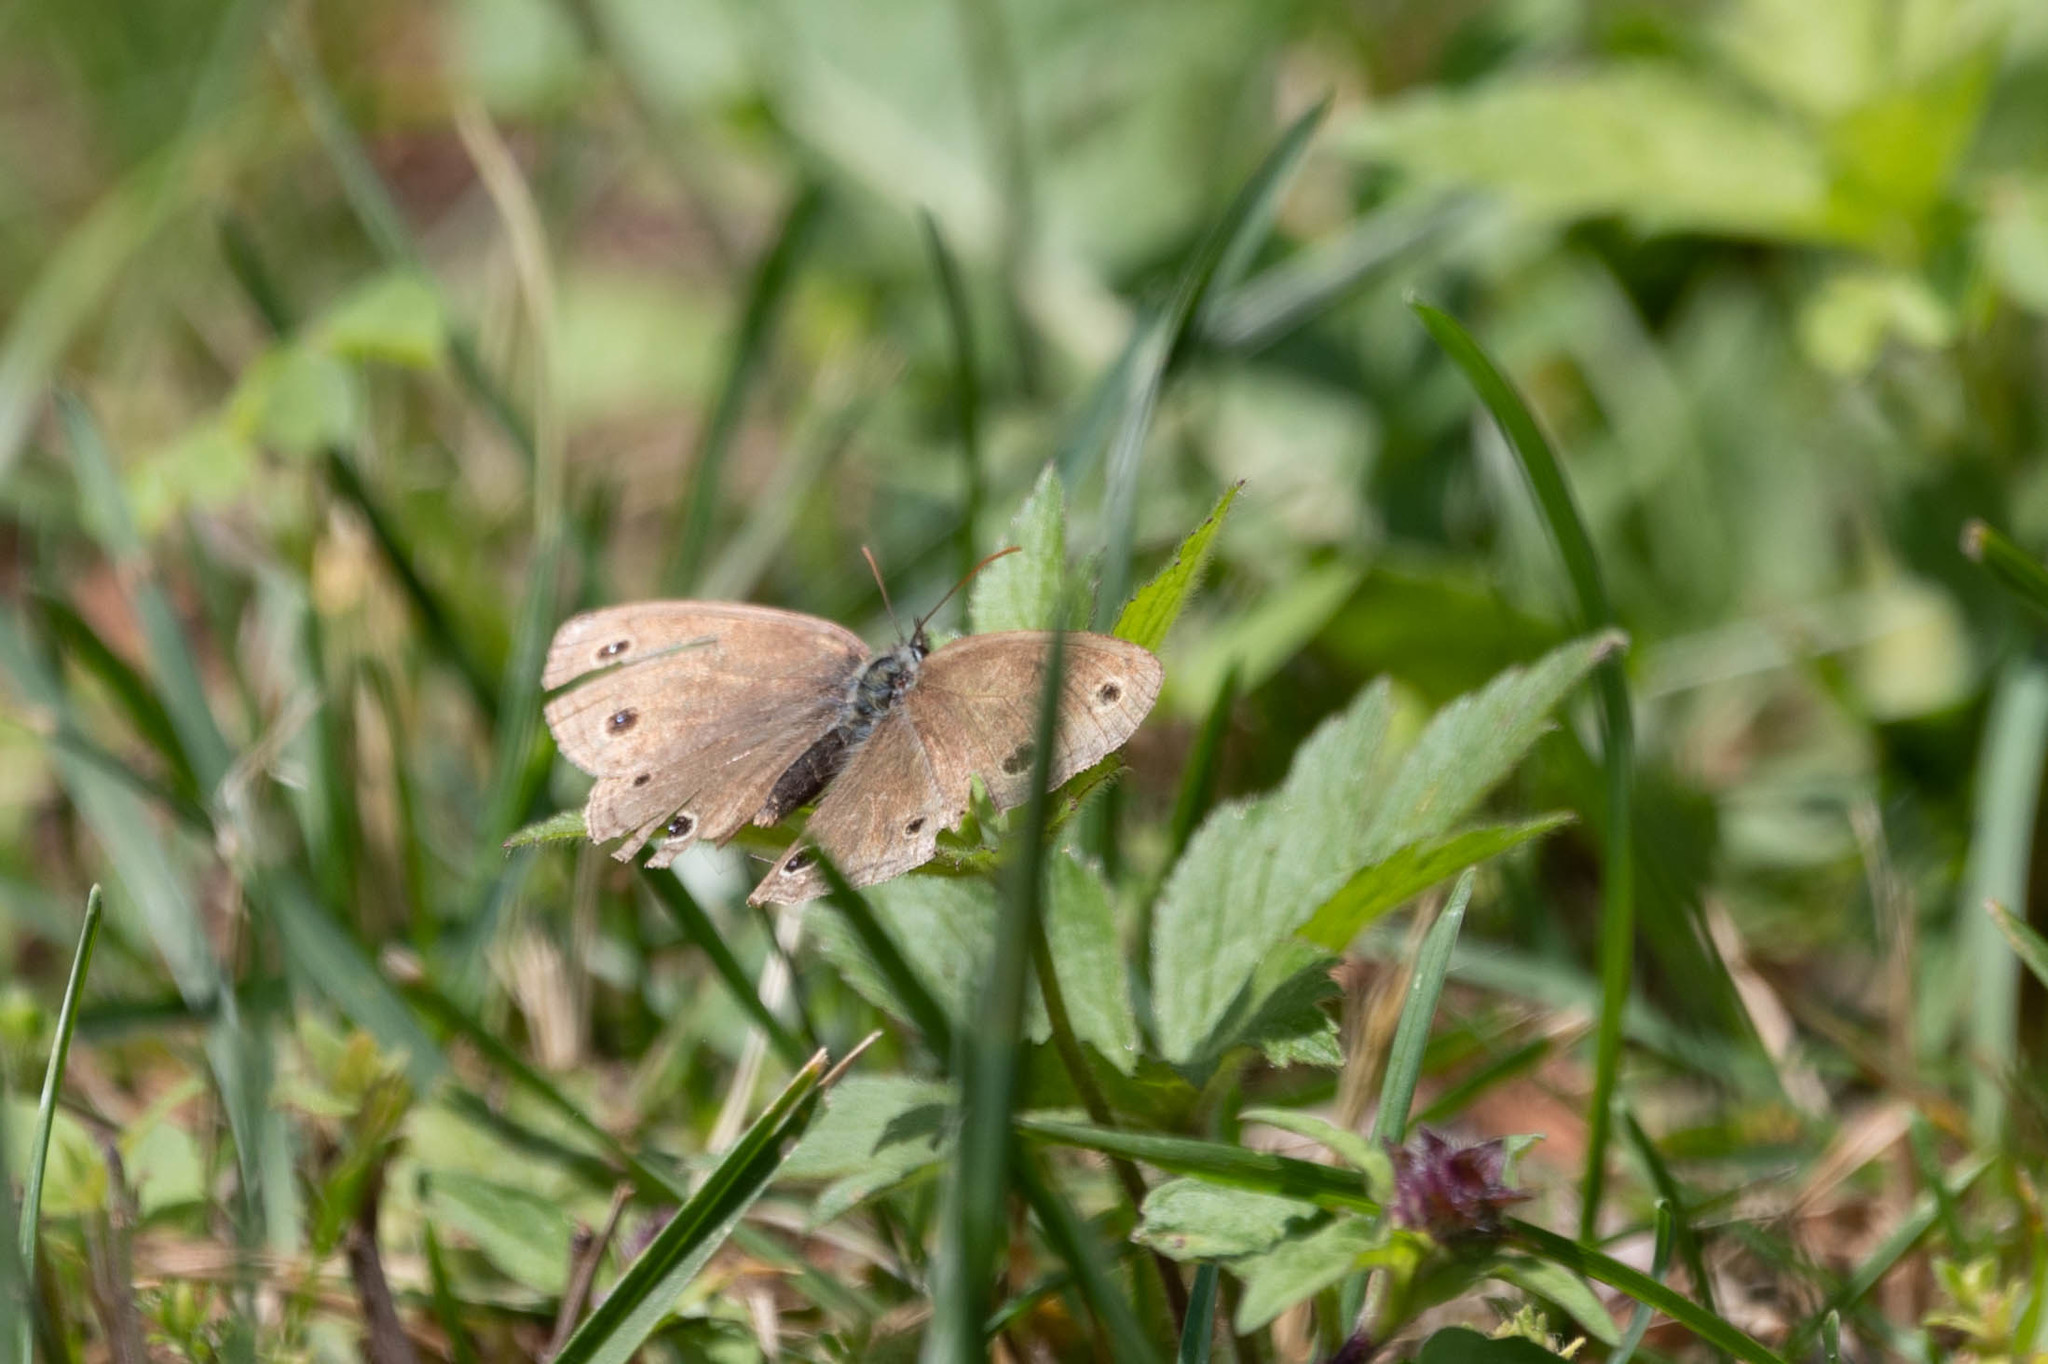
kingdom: Animalia
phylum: Arthropoda
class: Insecta
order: Lepidoptera
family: Nymphalidae
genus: Euptychia
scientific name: Euptychia cymela
